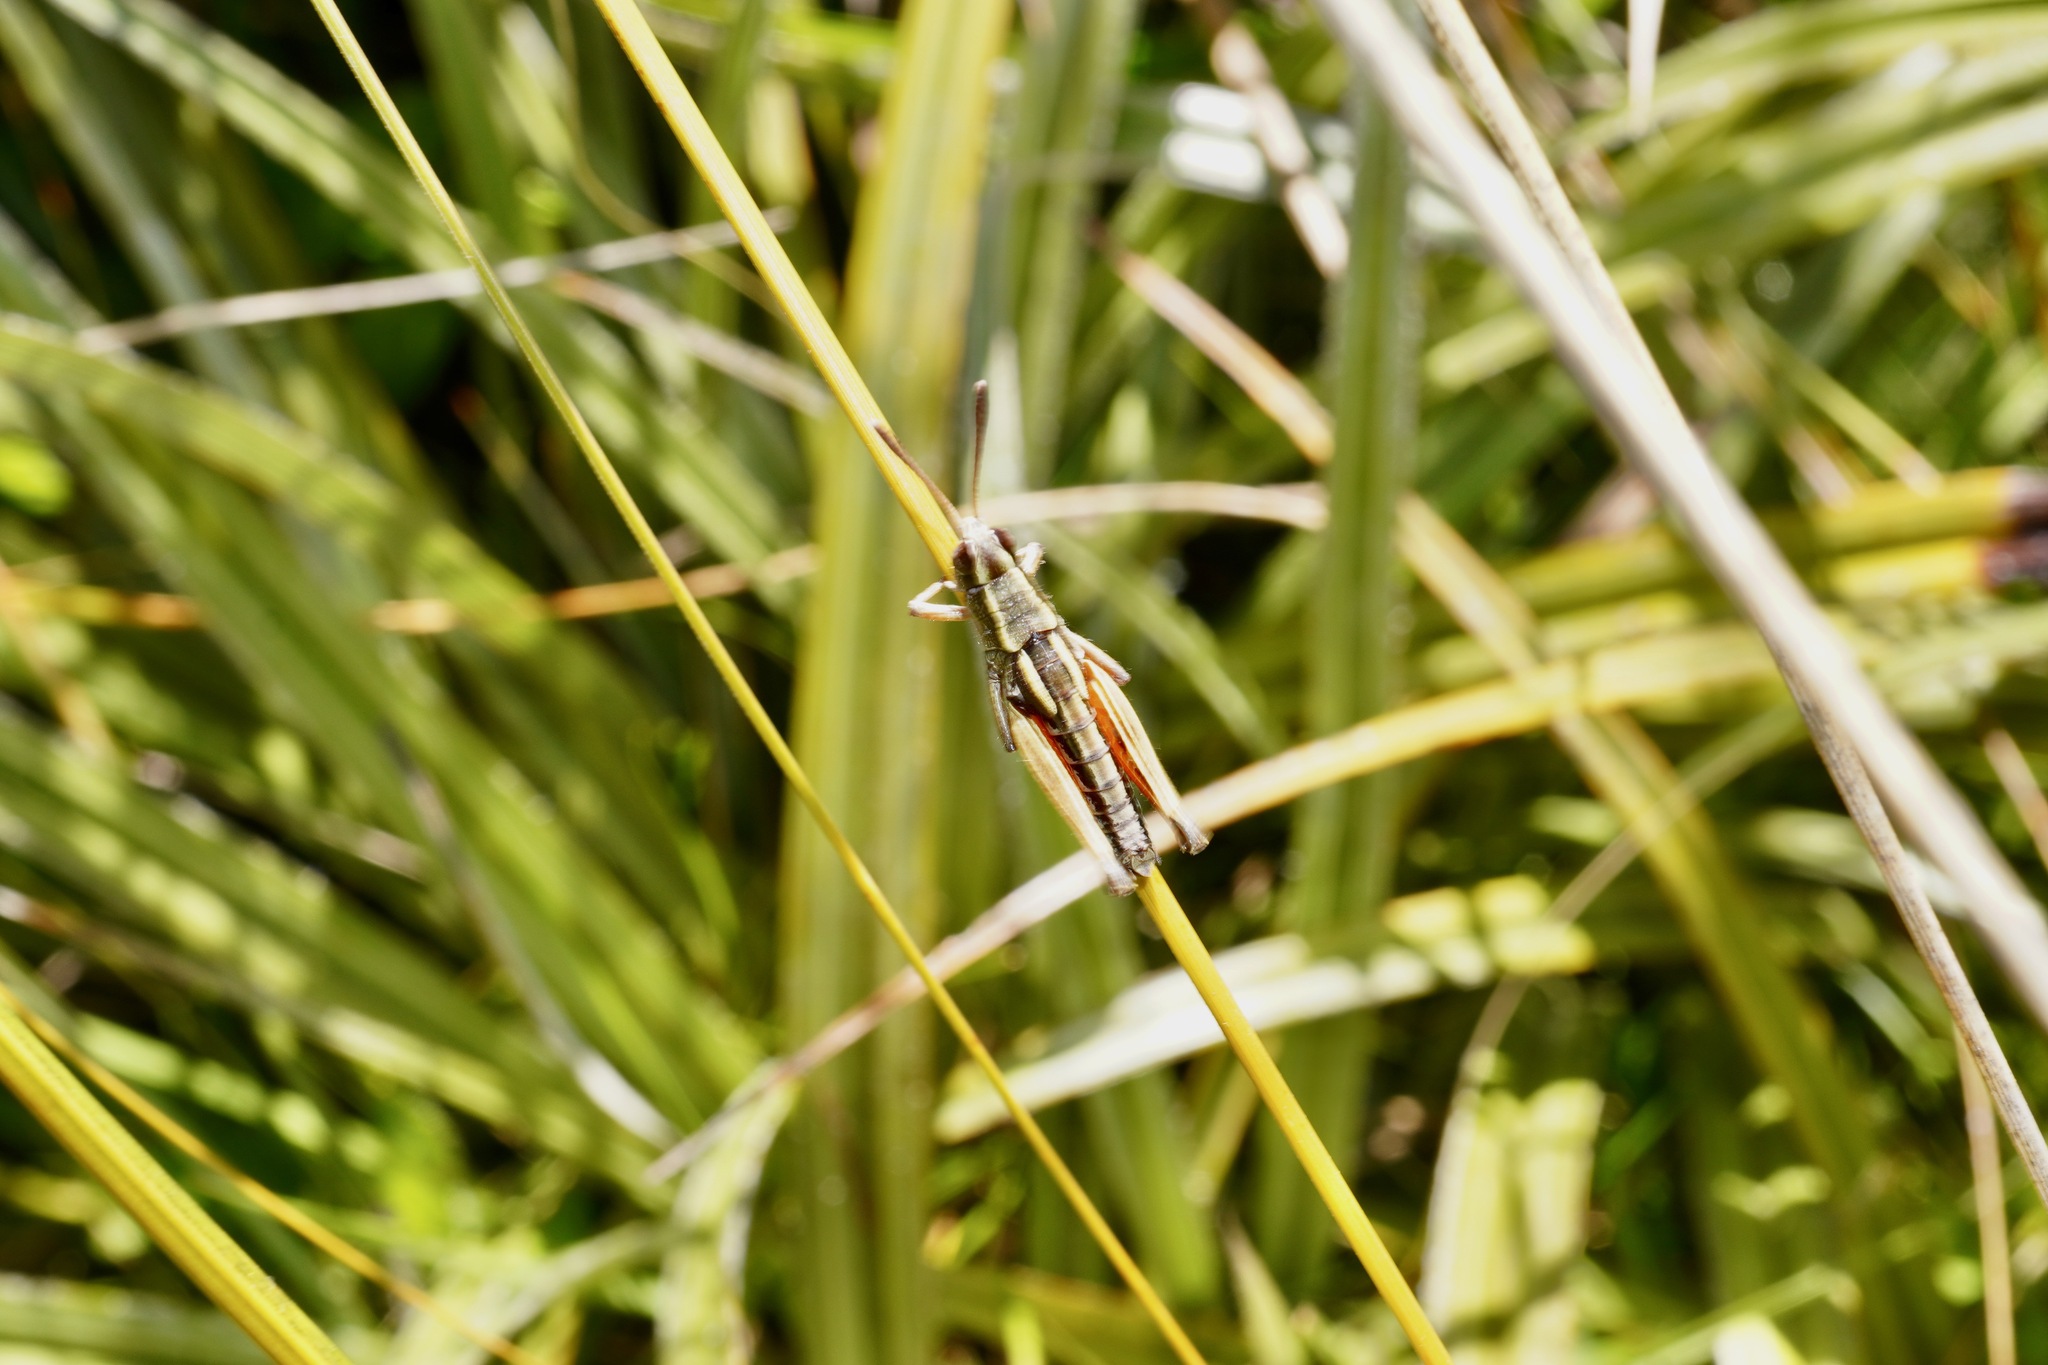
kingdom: Animalia
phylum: Arthropoda
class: Insecta
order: Orthoptera
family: Acrididae
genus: Sigaus
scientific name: Sigaus australis
